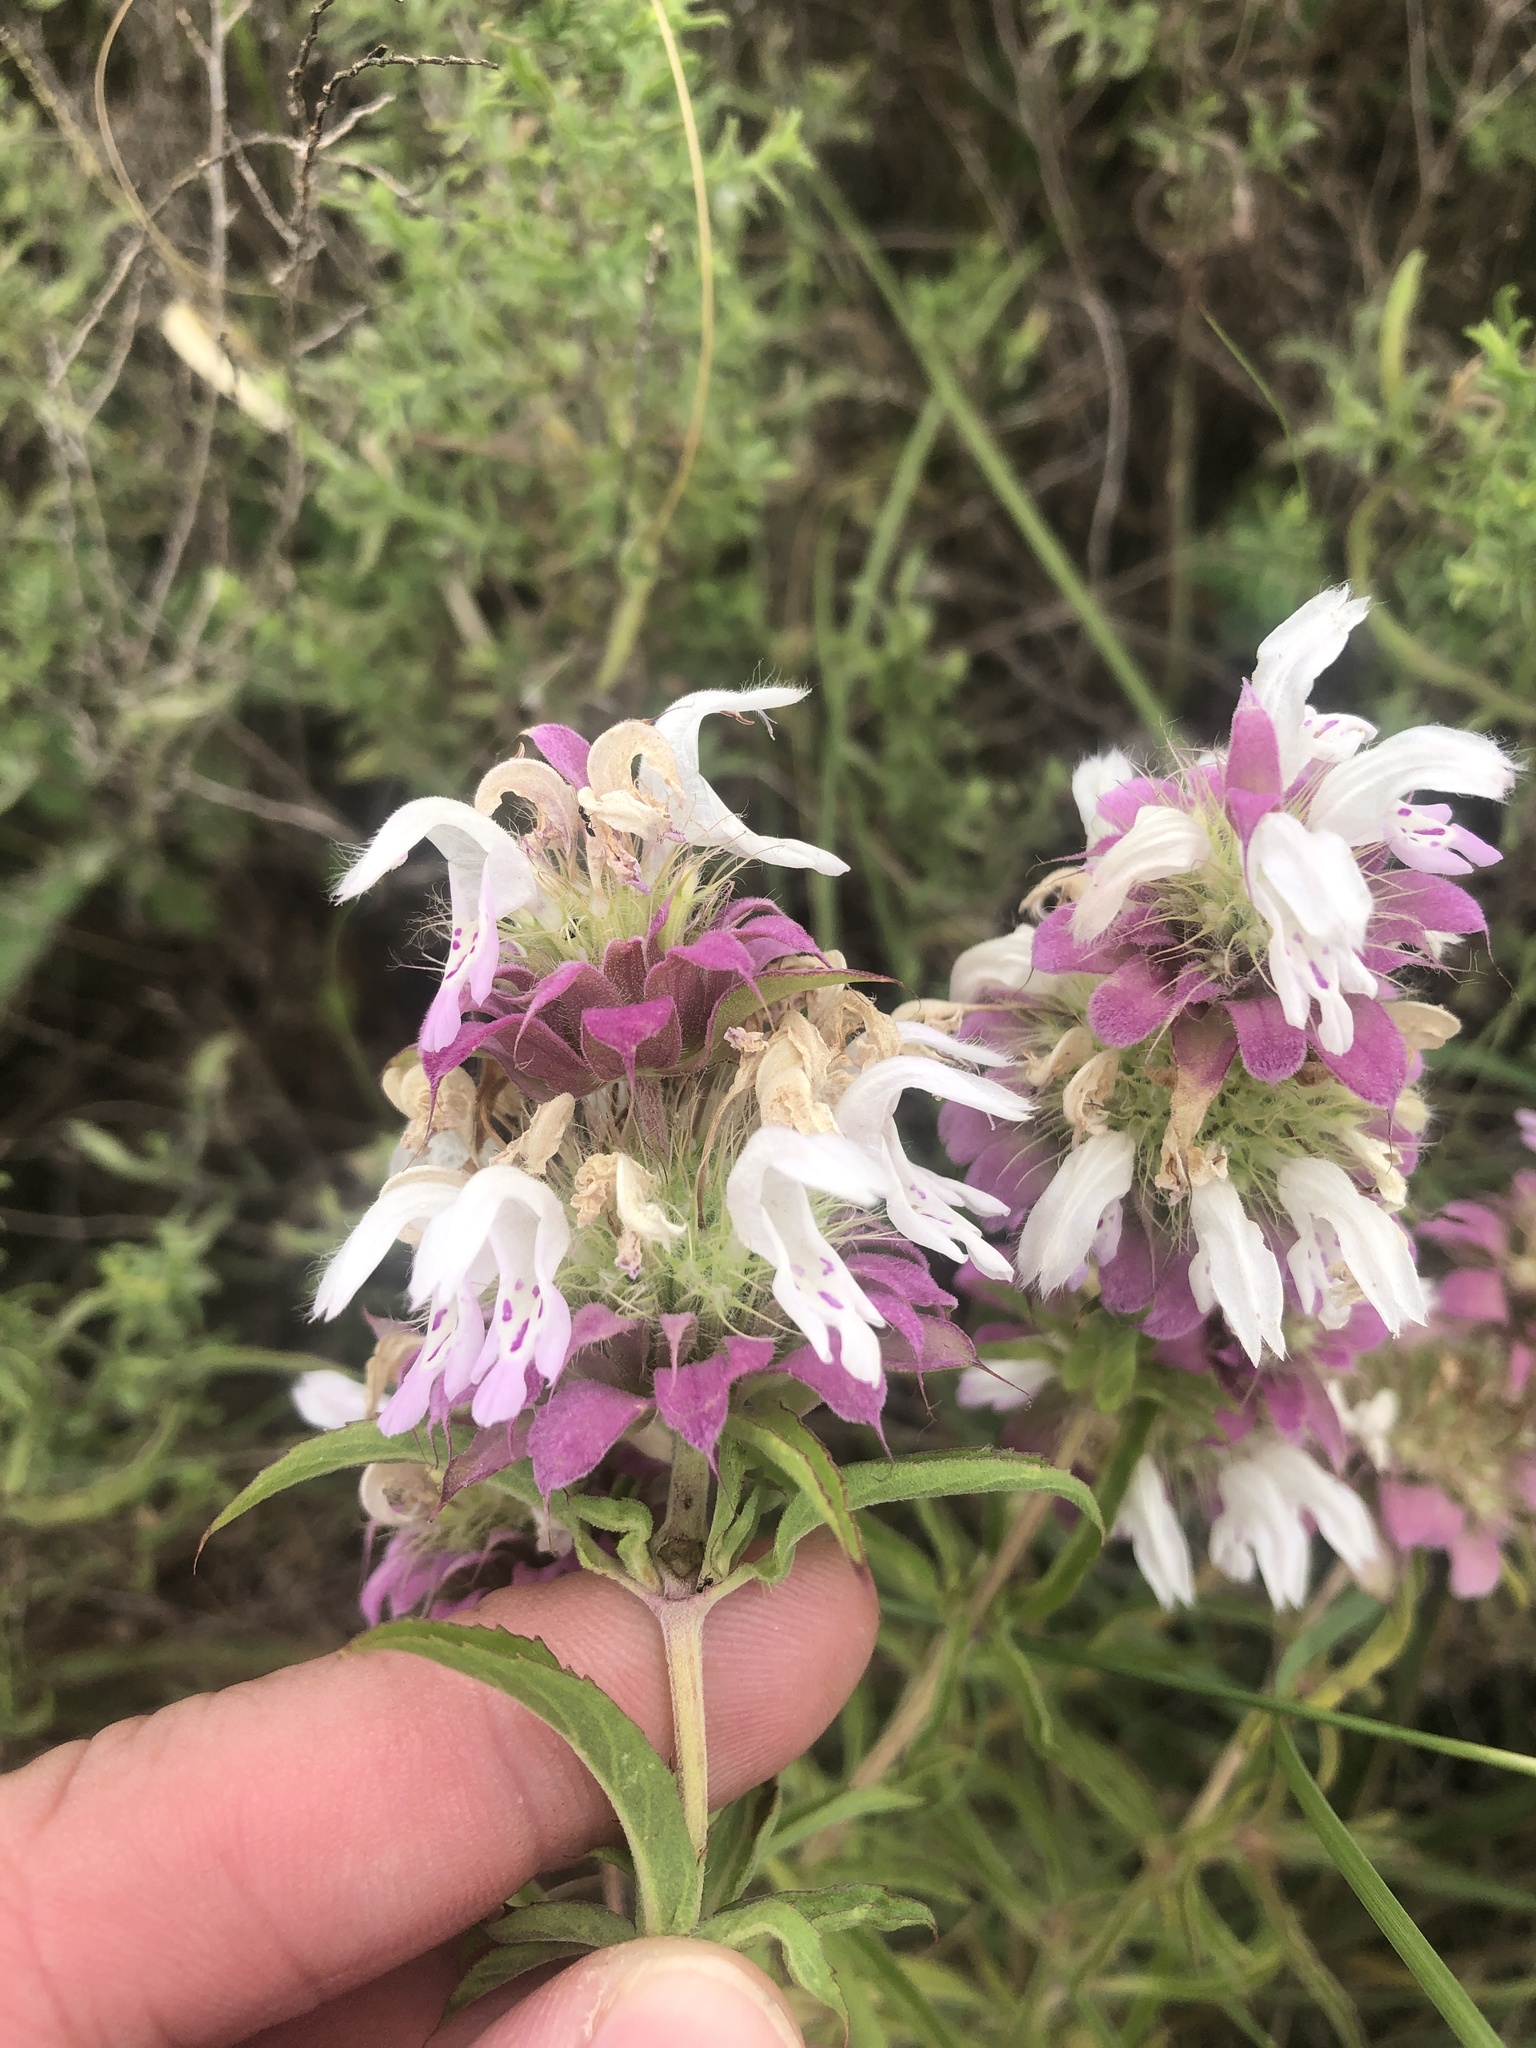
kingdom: Plantae
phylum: Tracheophyta
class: Magnoliopsida
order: Lamiales
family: Lamiaceae
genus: Monarda
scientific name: Monarda citriodora
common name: Lemon beebalm
